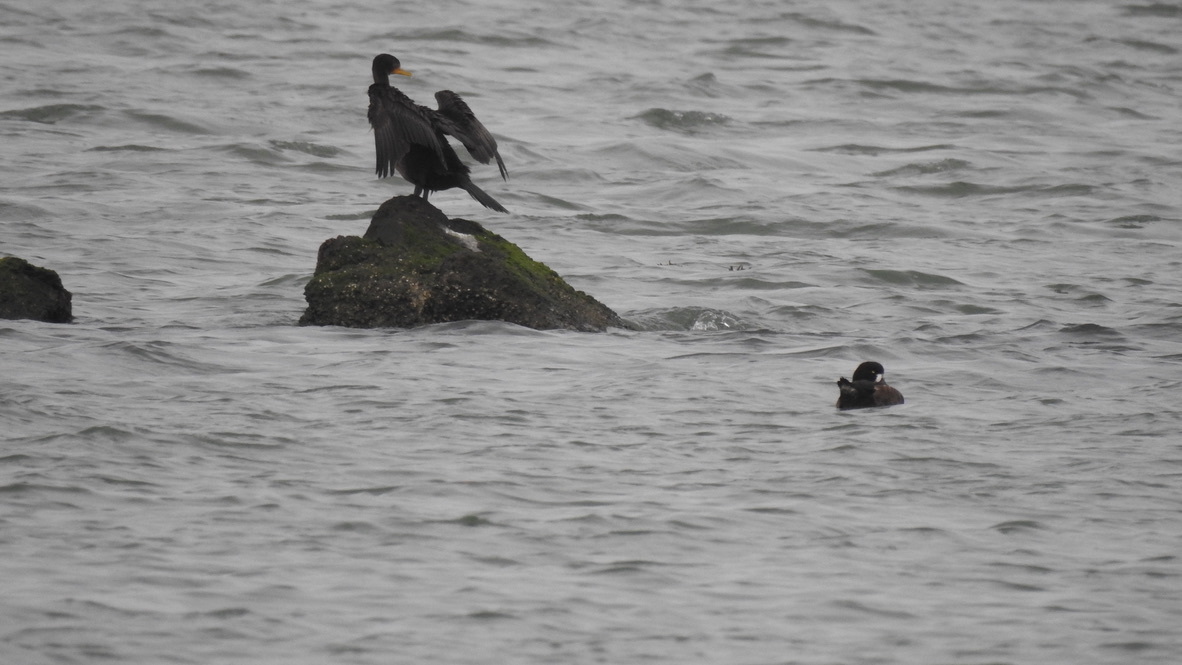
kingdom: Animalia
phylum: Chordata
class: Aves
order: Suliformes
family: Phalacrocoracidae
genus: Phalacrocorax
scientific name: Phalacrocorax auritus
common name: Double-crested cormorant
